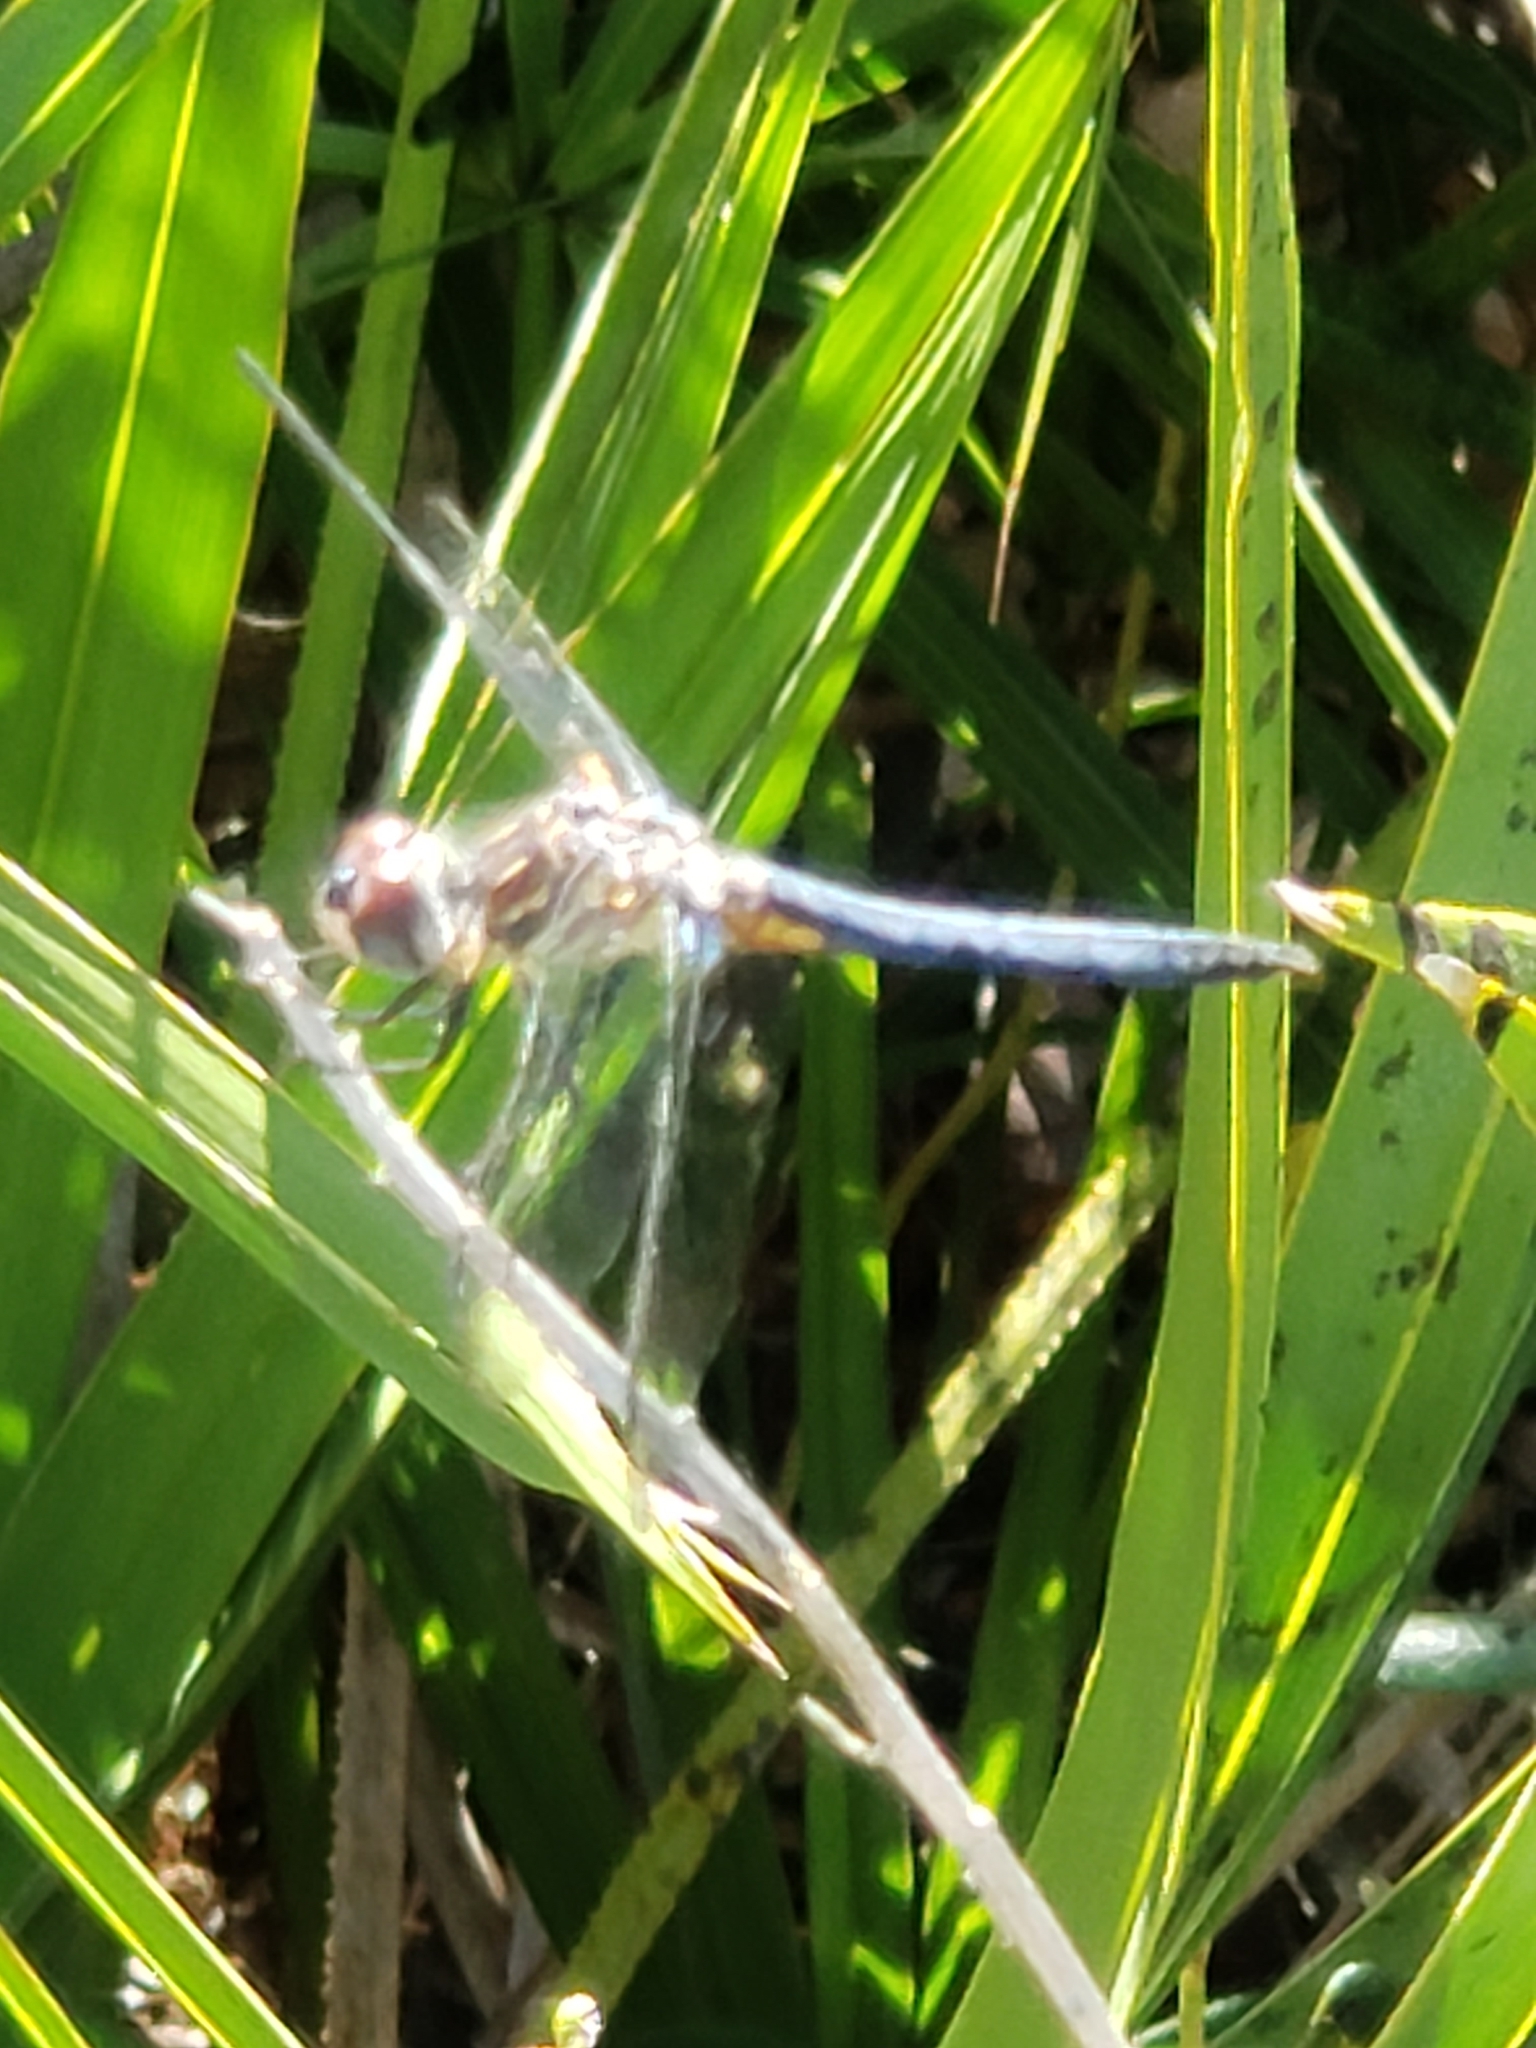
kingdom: Animalia
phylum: Arthropoda
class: Insecta
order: Odonata
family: Libellulidae
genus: Pachydiplax
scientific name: Pachydiplax longipennis
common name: Blue dasher
